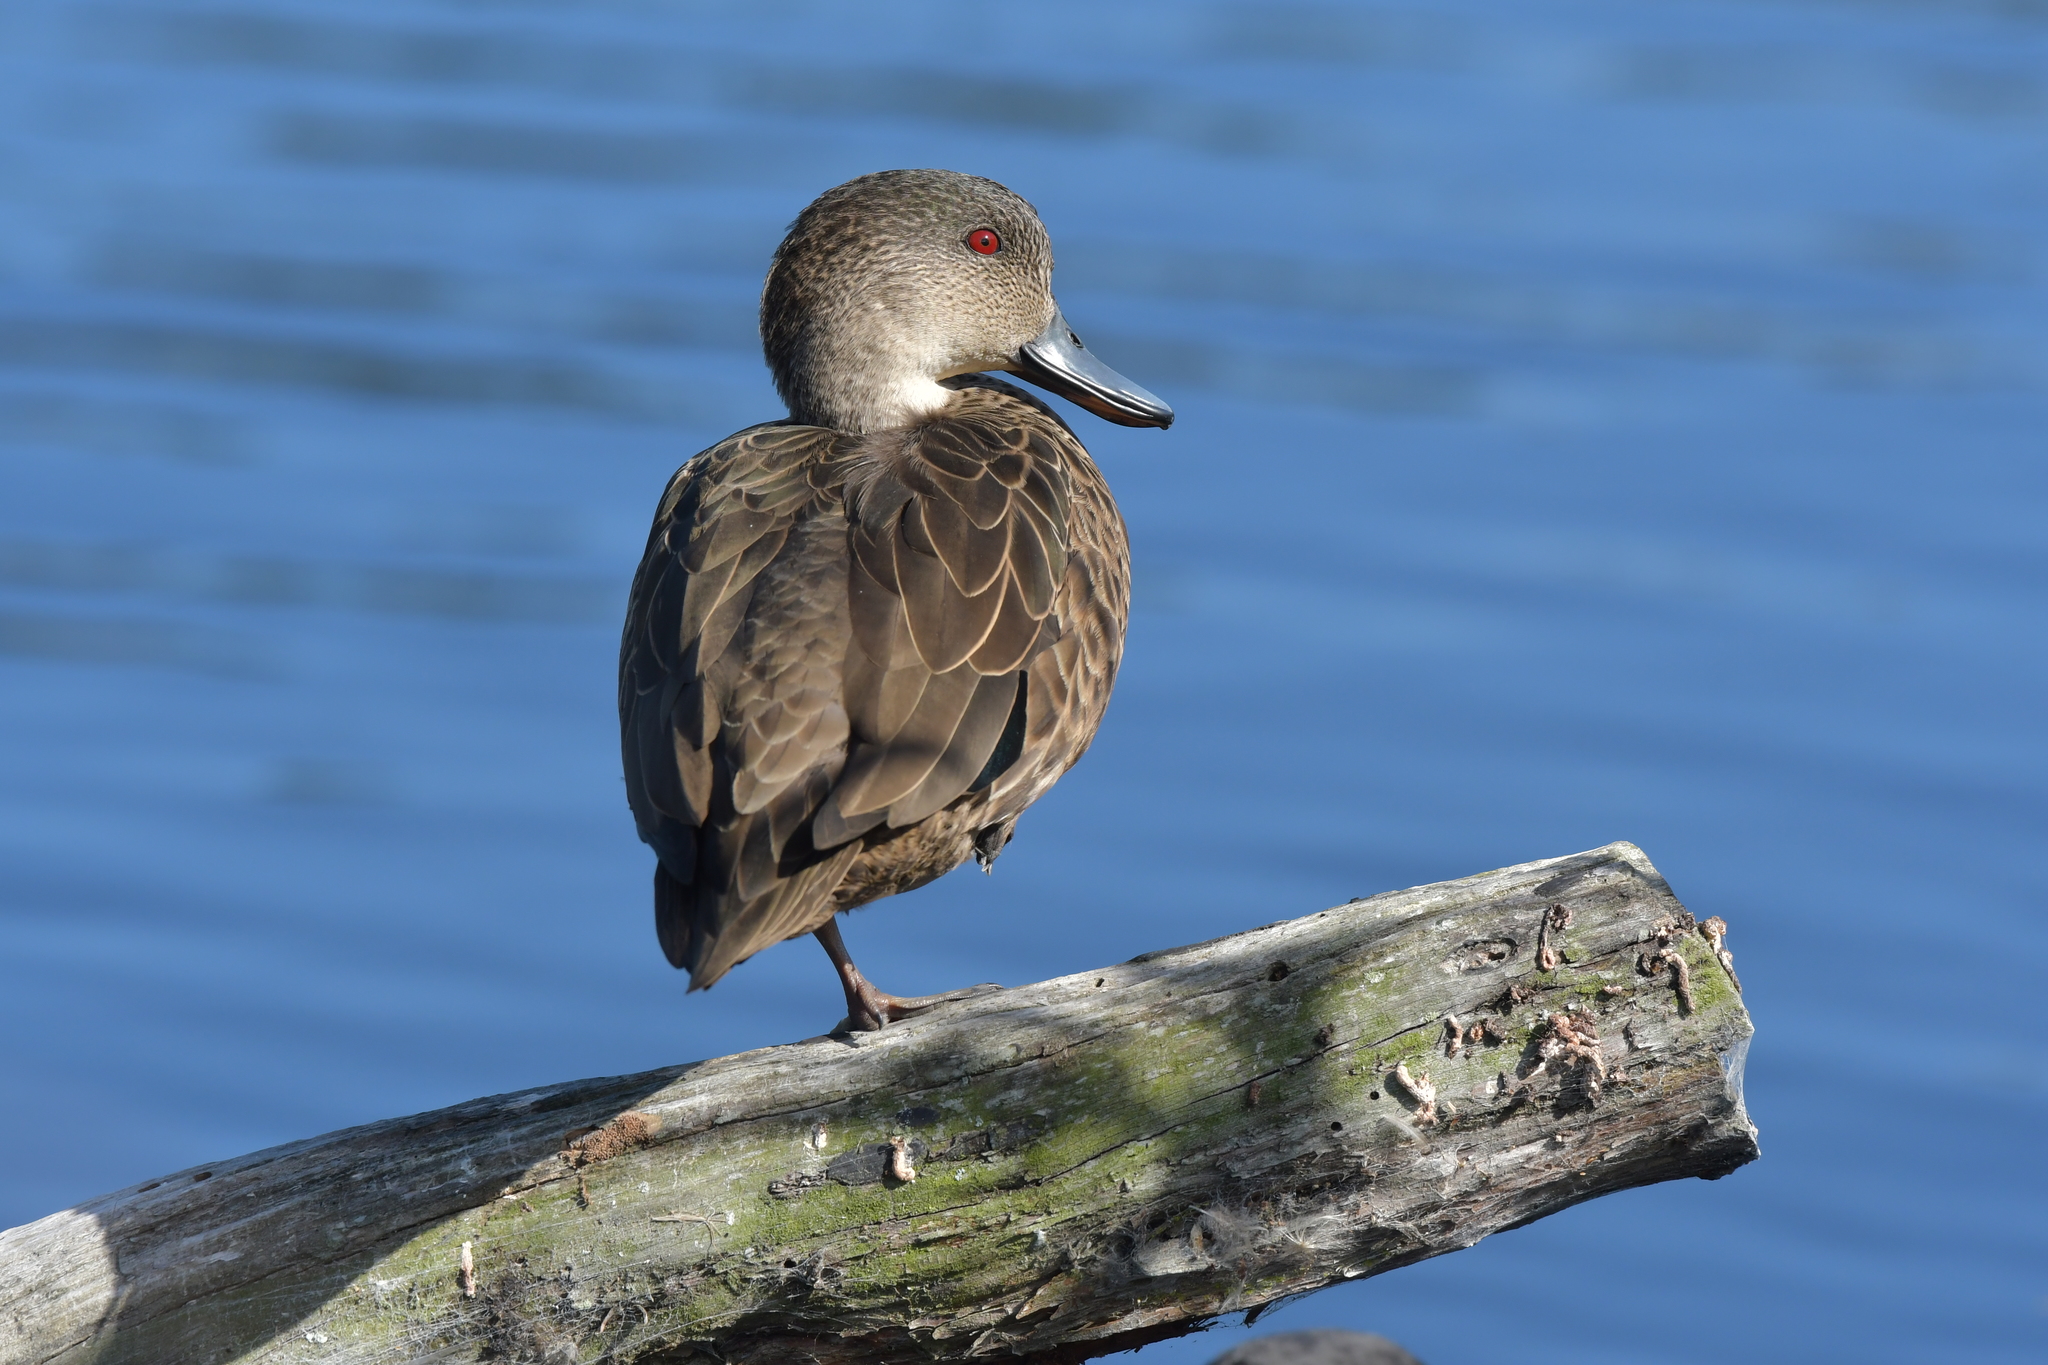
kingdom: Animalia
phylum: Chordata
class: Aves
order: Anseriformes
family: Anatidae
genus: Anas
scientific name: Anas gracilis
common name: Grey teal
